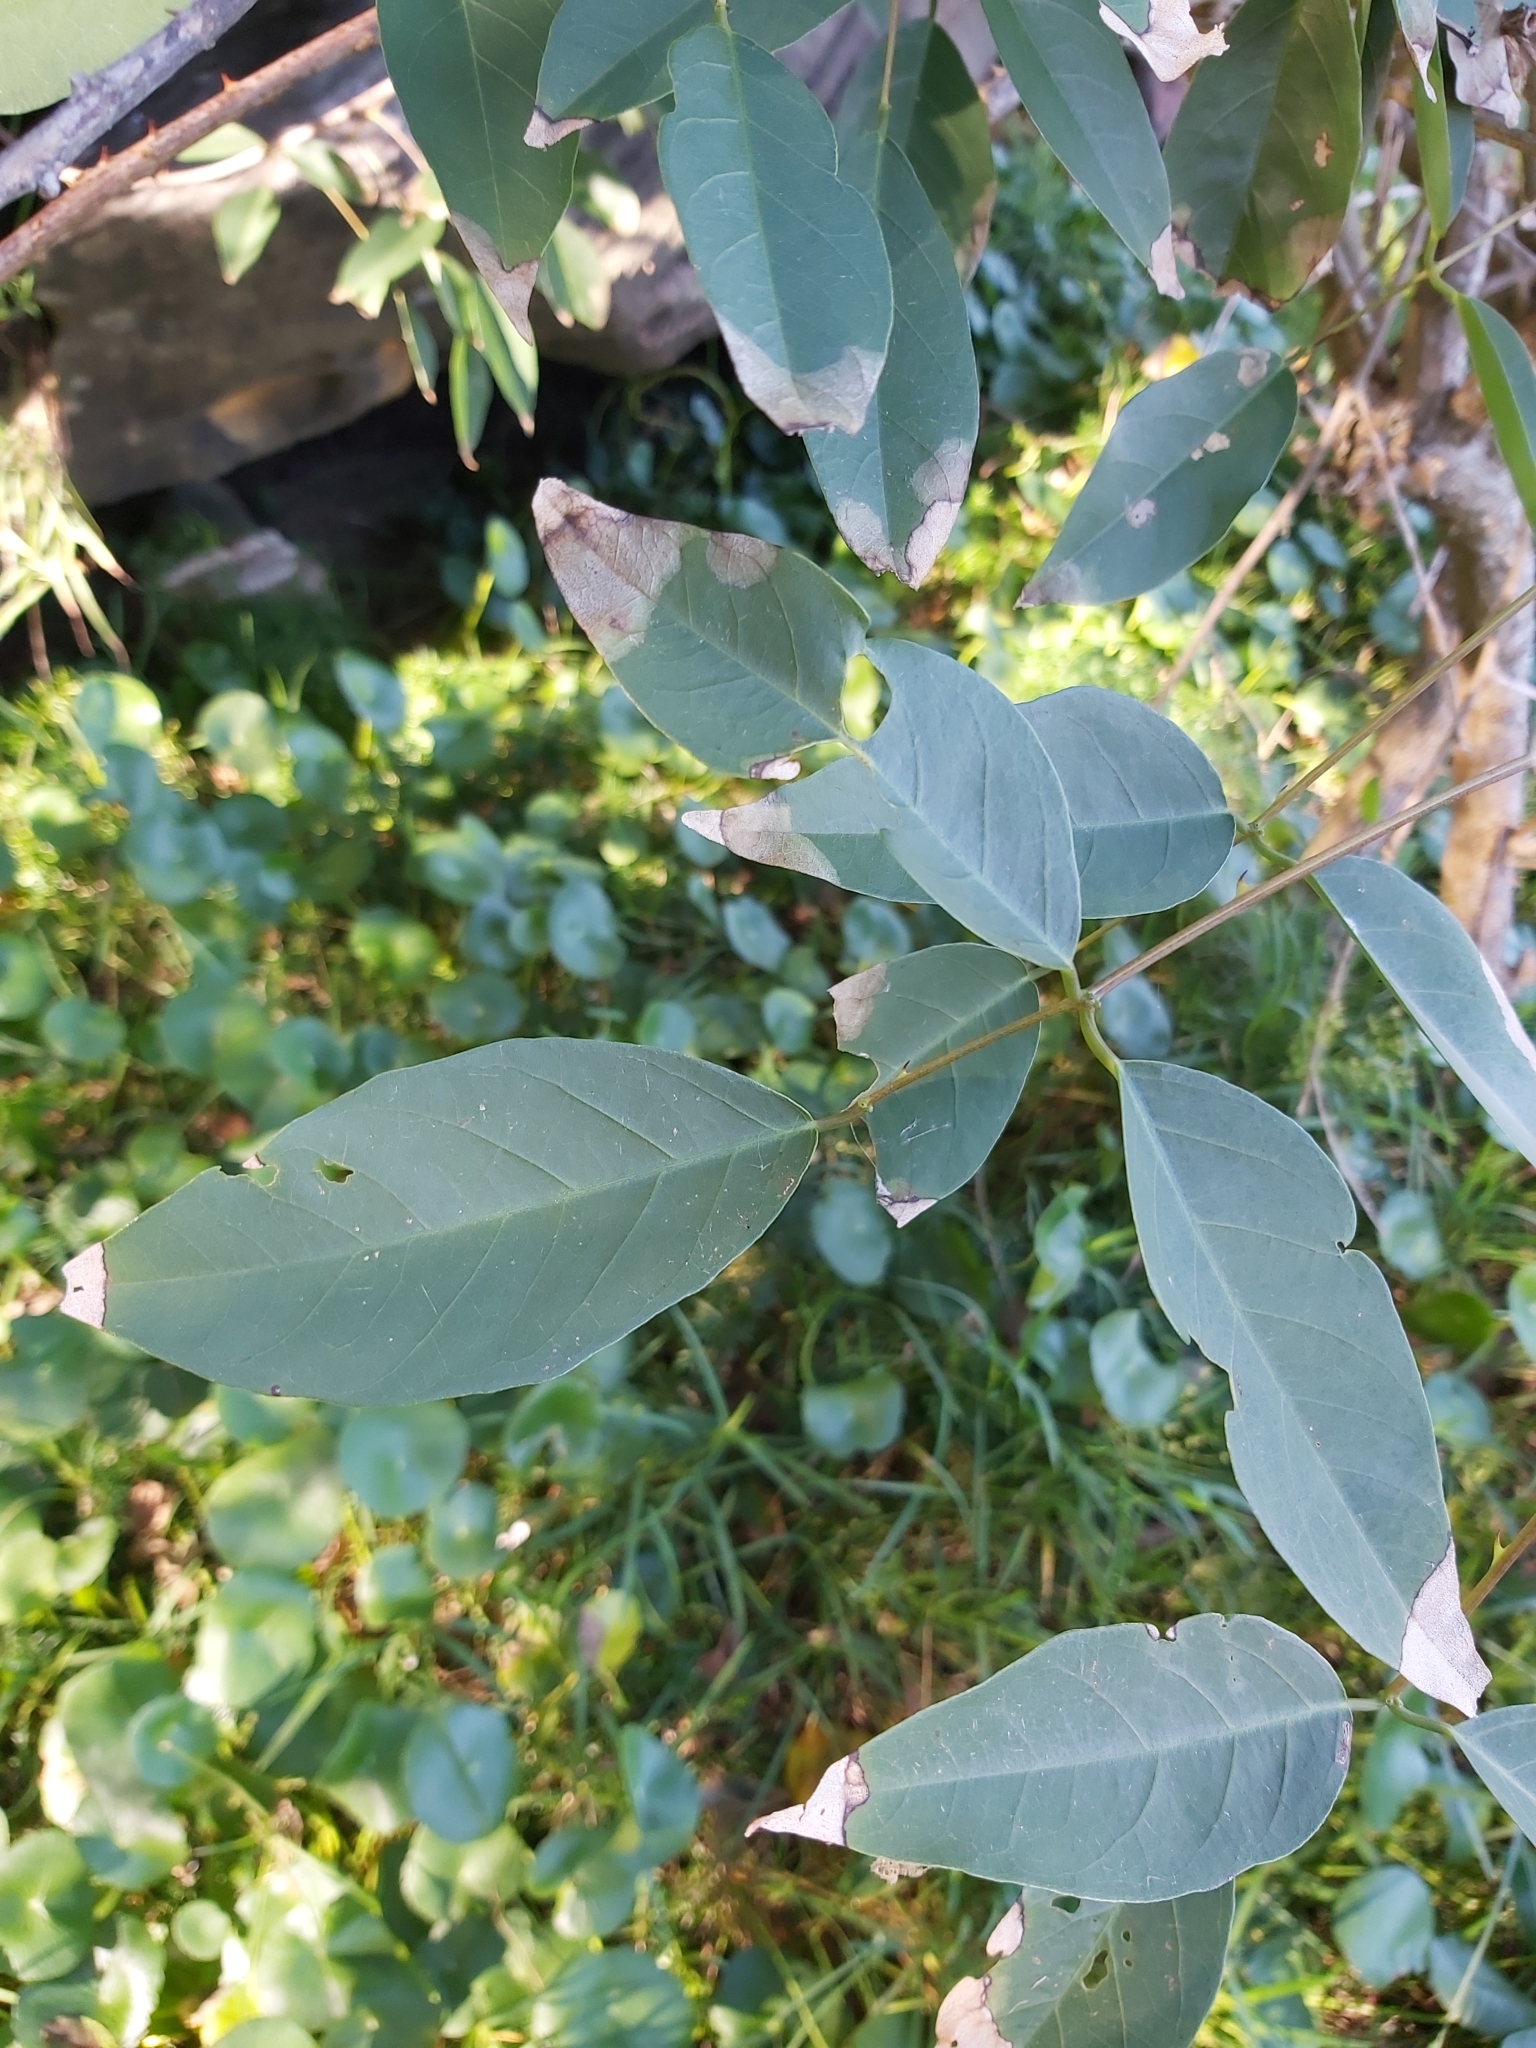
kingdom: Plantae
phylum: Tracheophyta
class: Magnoliopsida
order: Fabales
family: Fabaceae
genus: Erythrina
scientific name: Erythrina crista-galli
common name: Cockspur coral tree
